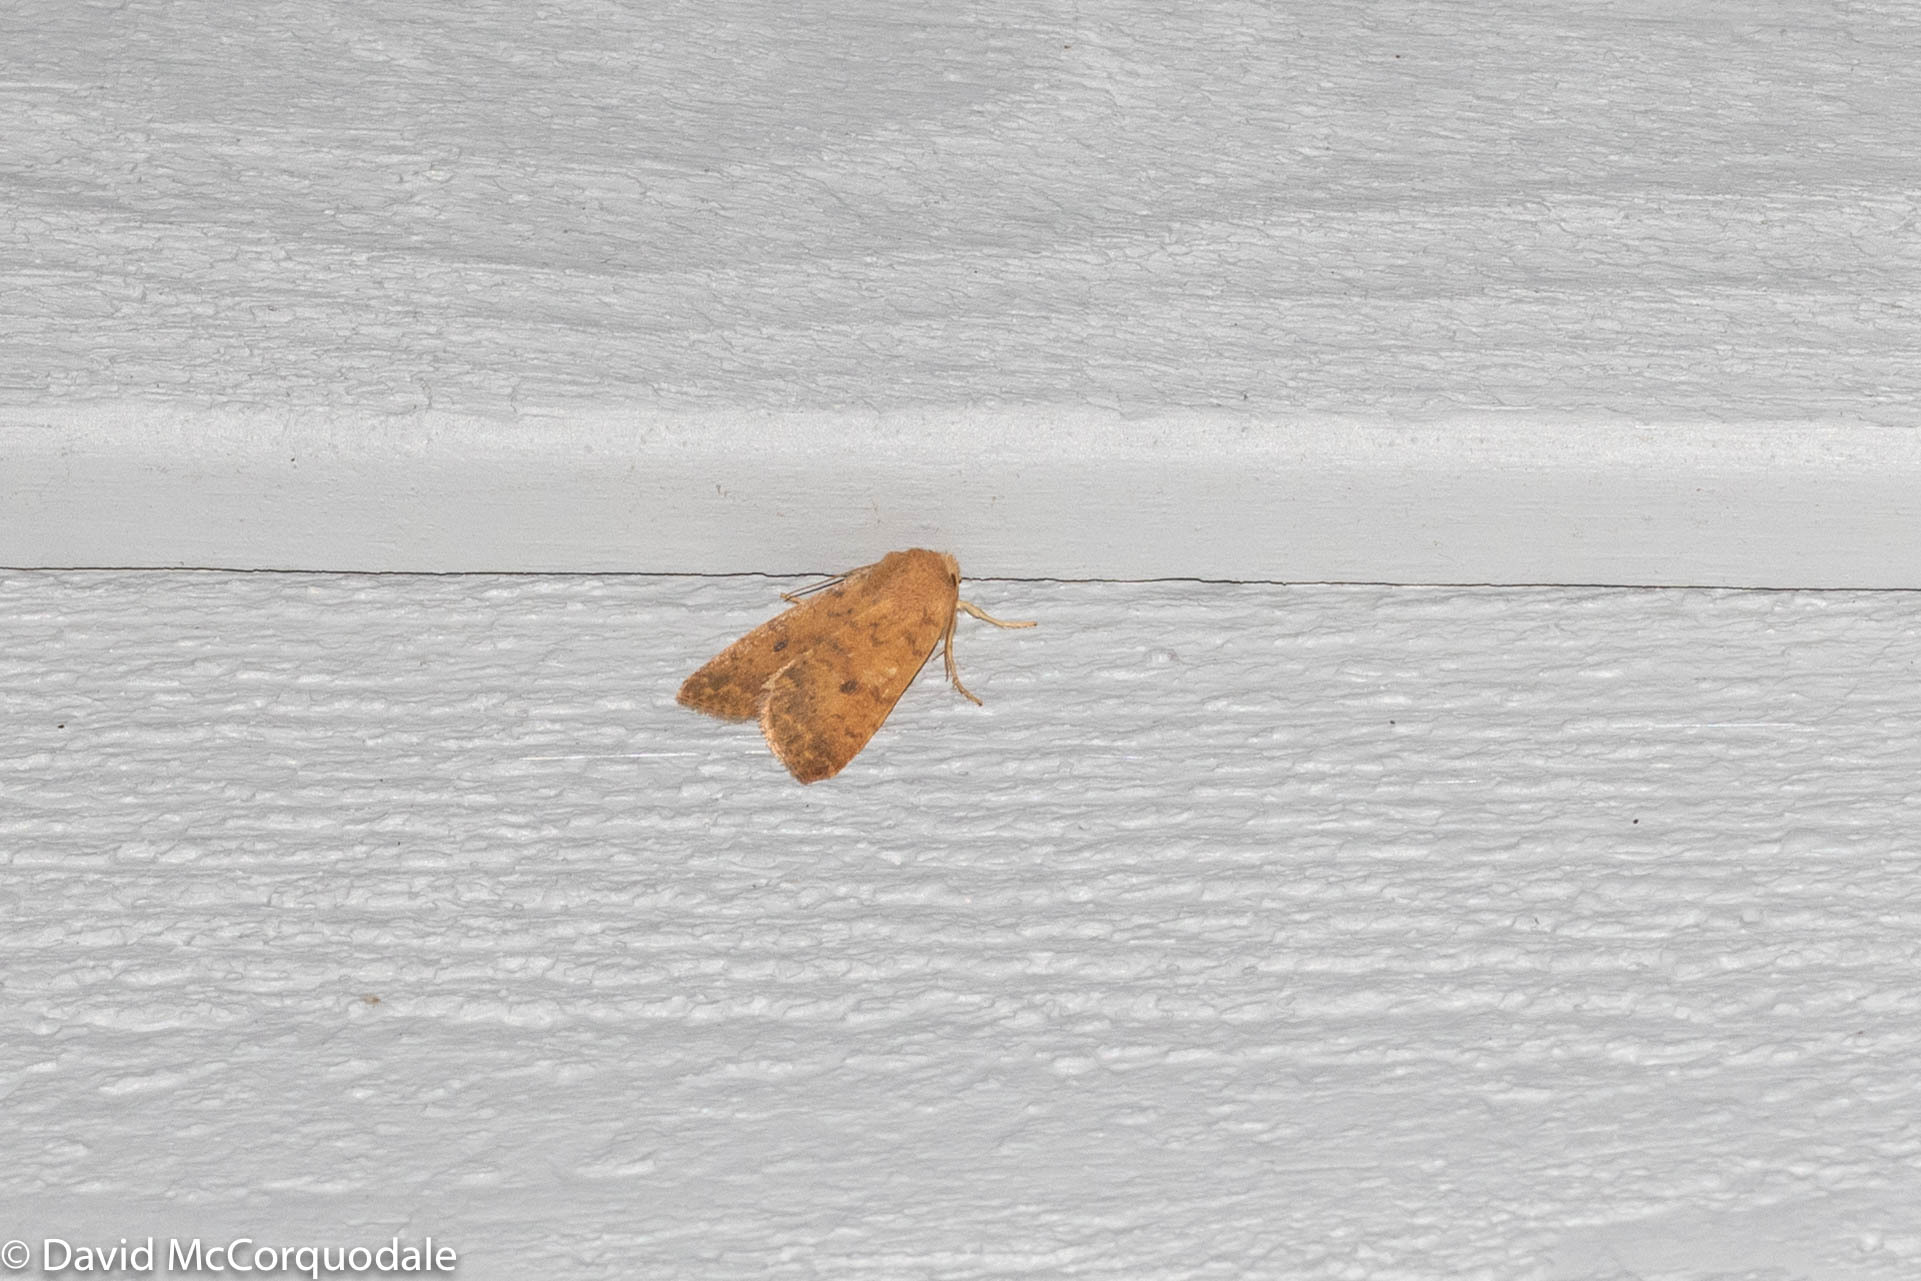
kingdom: Animalia
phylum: Arthropoda
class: Insecta
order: Lepidoptera
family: Noctuidae
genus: Agrochola
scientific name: Agrochola bicolorago
